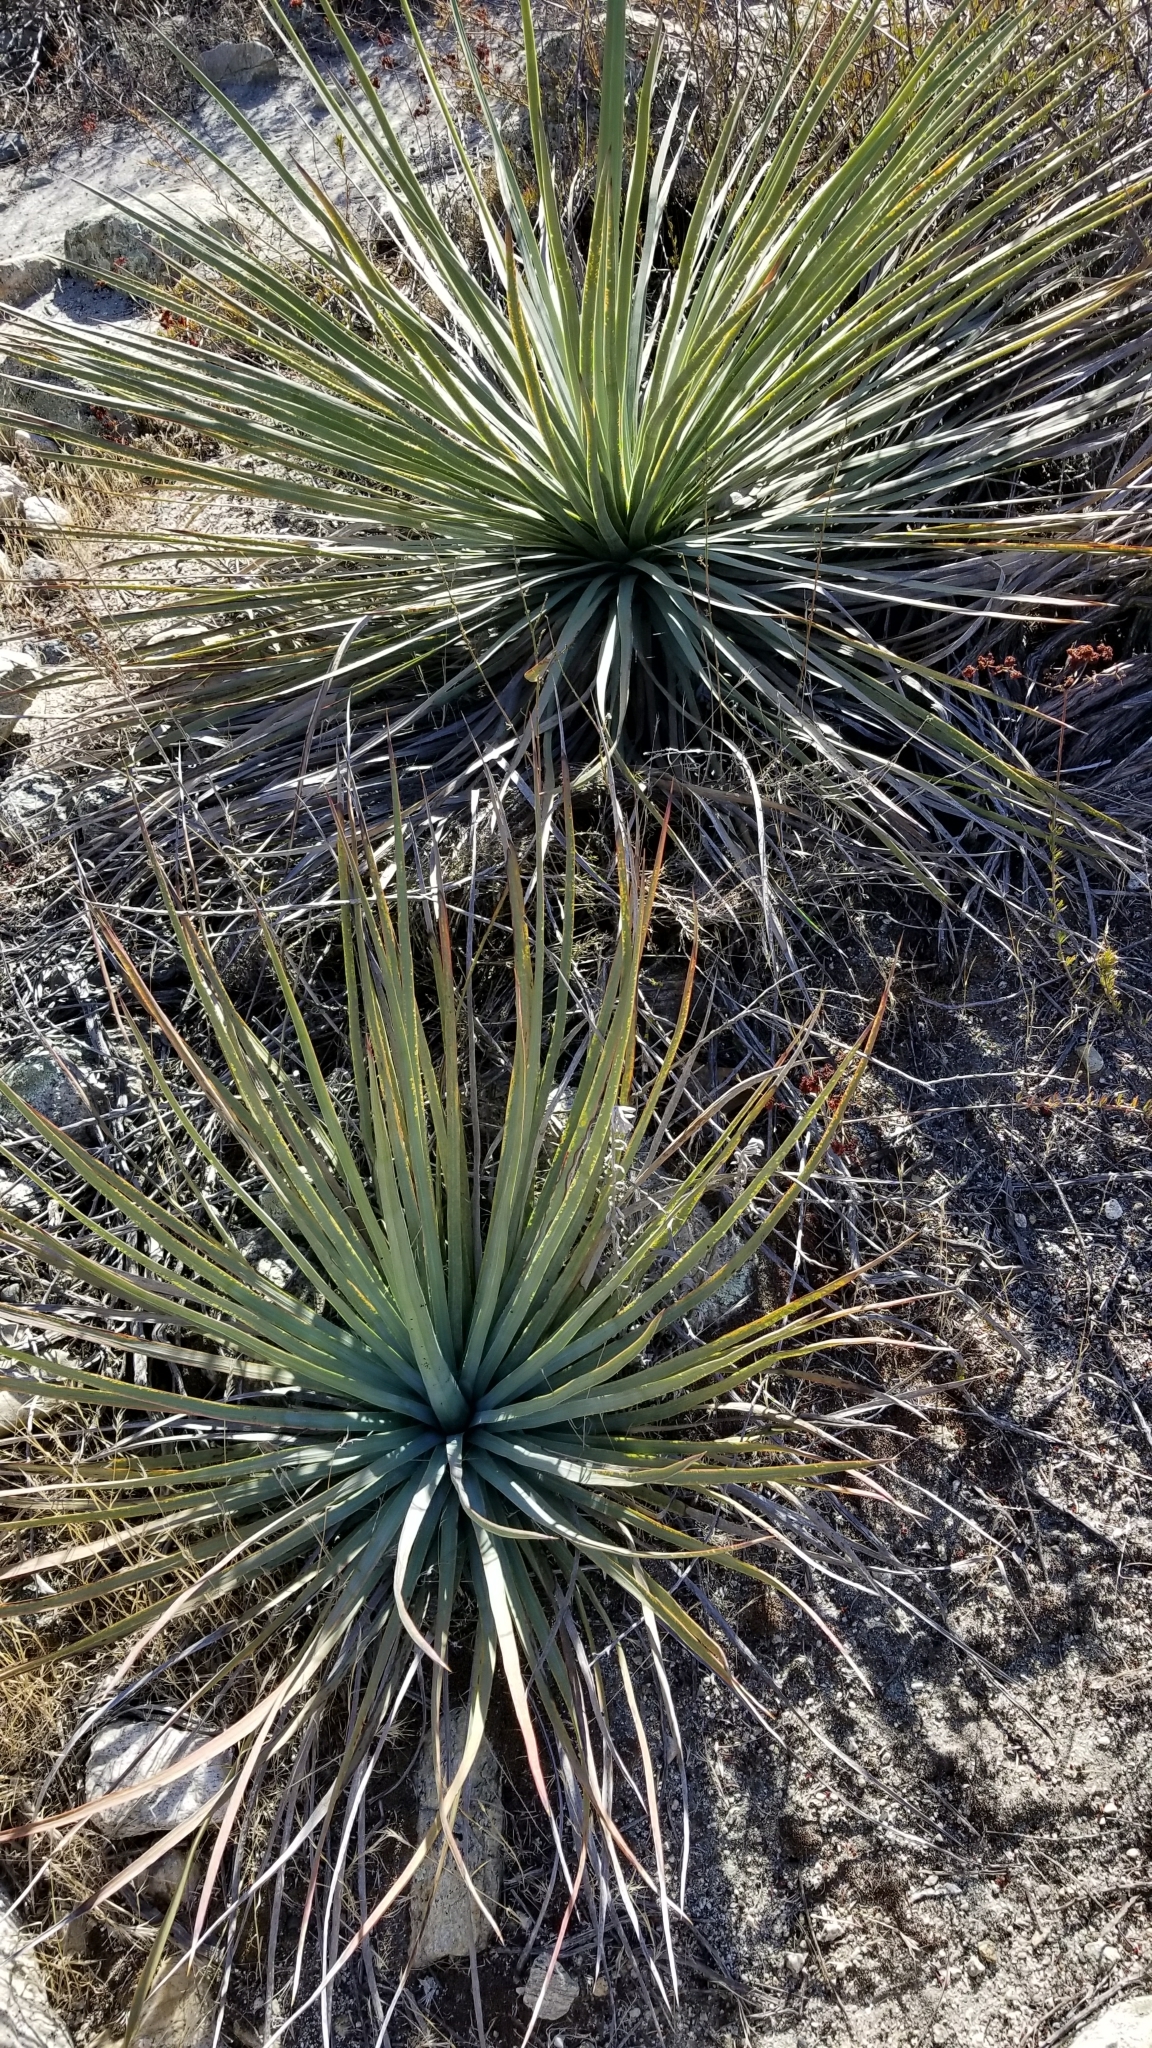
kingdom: Plantae
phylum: Tracheophyta
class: Liliopsida
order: Asparagales
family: Asparagaceae
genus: Hesperoyucca
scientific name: Hesperoyucca whipplei
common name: Our lord's-candle
